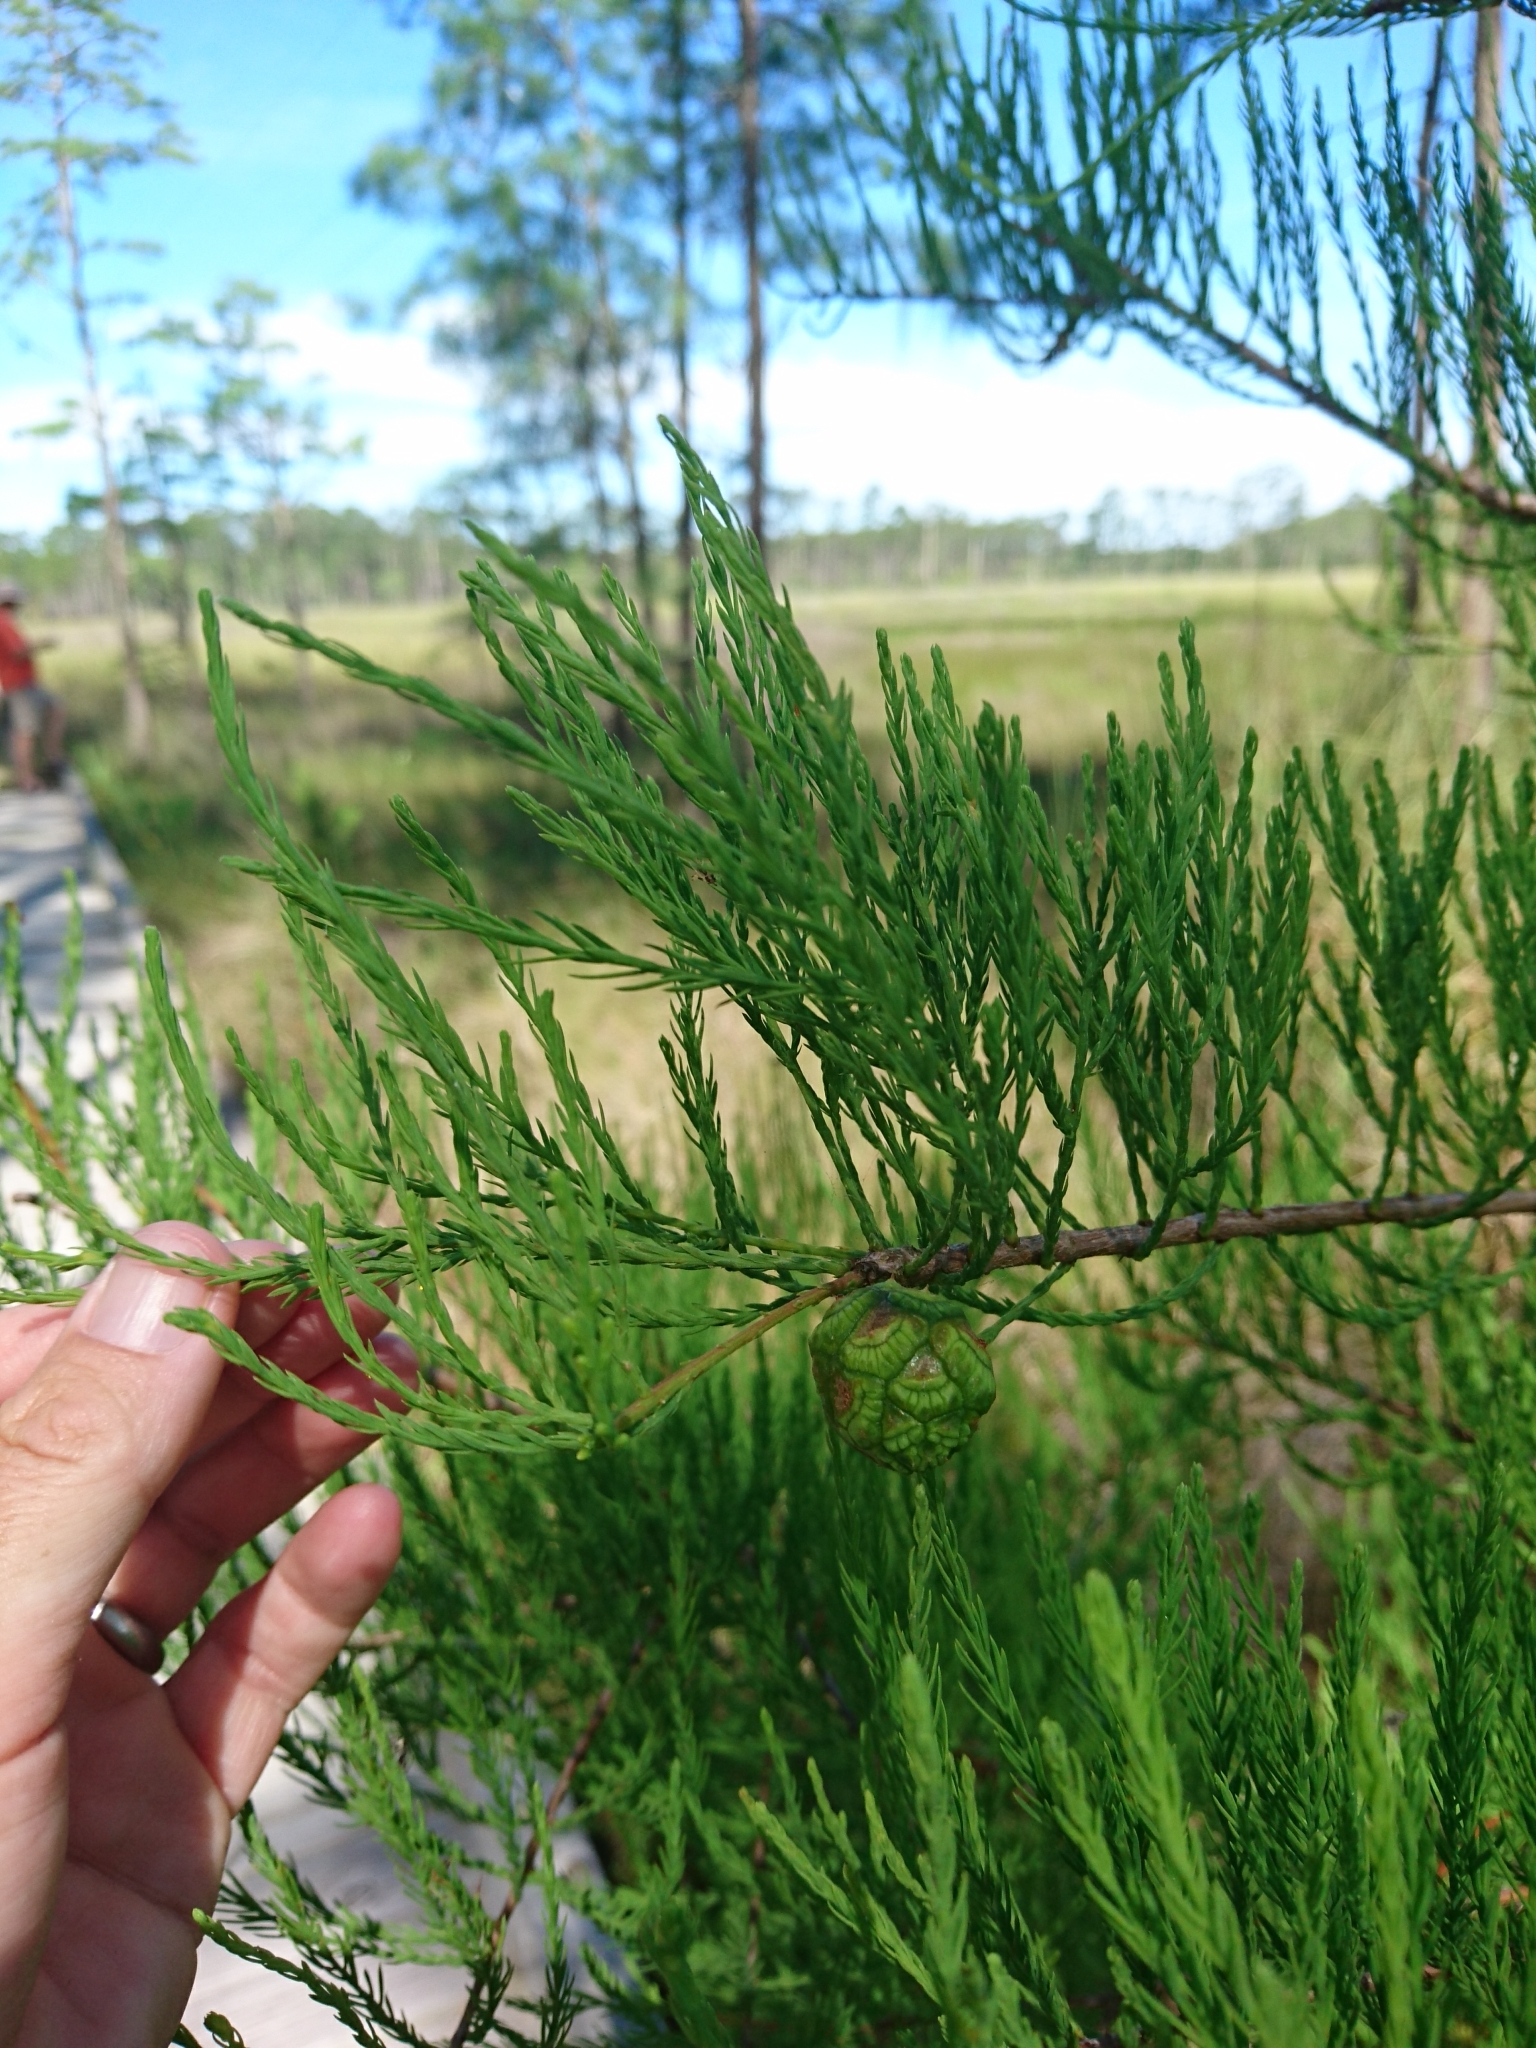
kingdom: Plantae
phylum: Tracheophyta
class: Pinopsida
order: Pinales
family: Cupressaceae
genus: Taxodium
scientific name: Taxodium distichum
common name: Bald cypress
